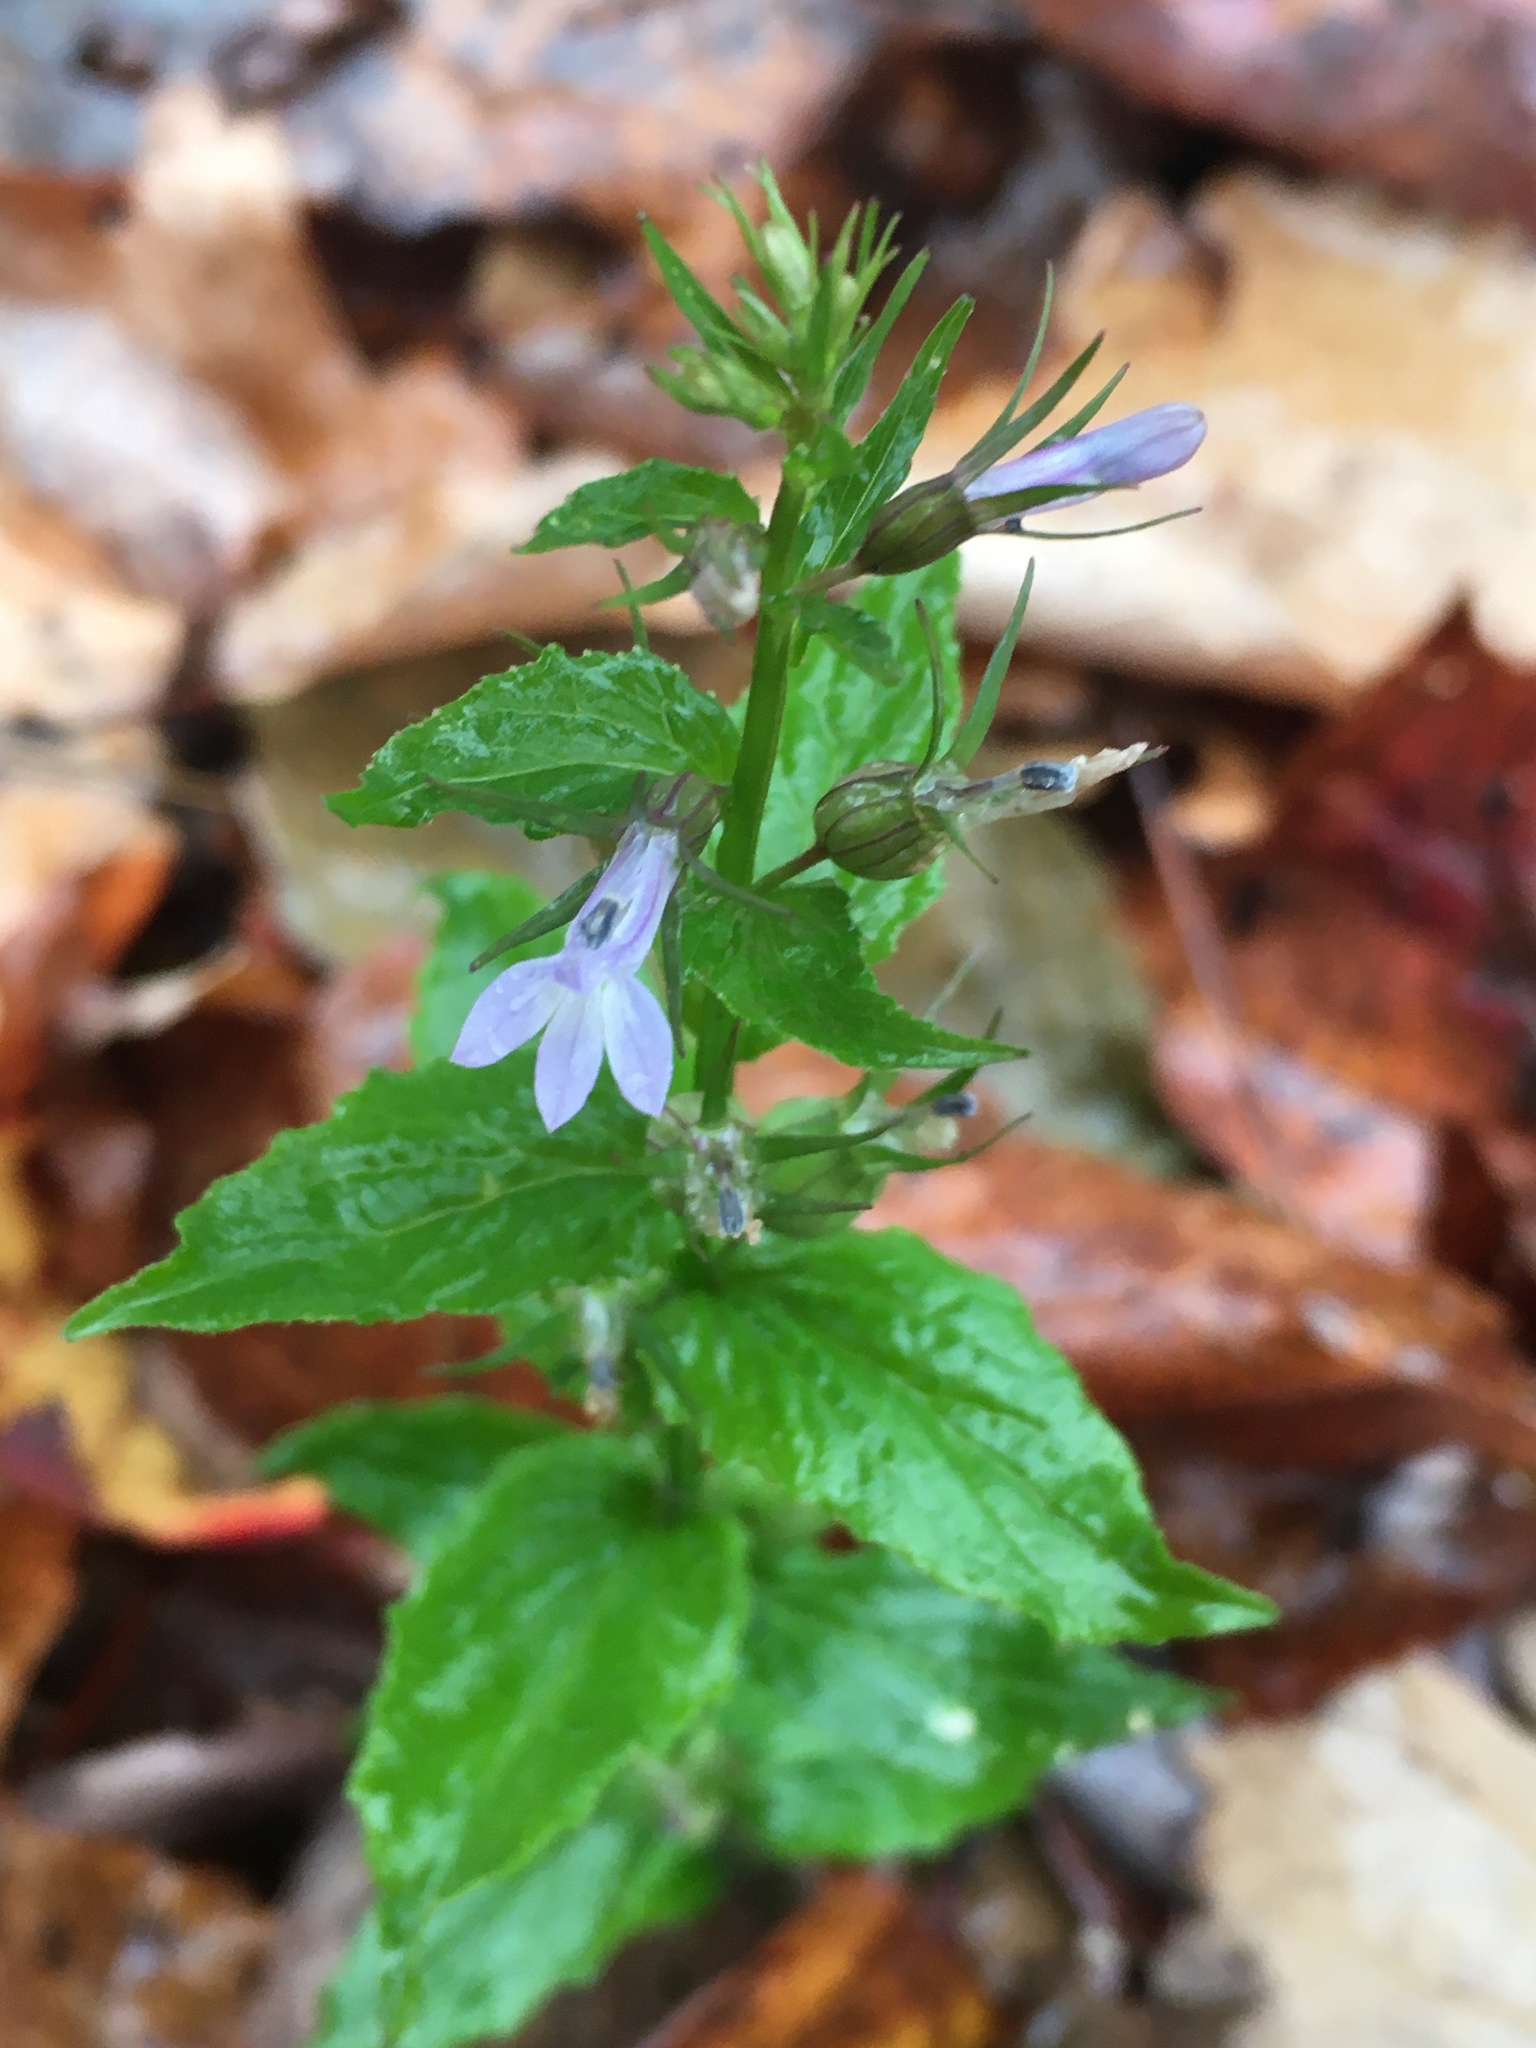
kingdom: Plantae
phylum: Tracheophyta
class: Magnoliopsida
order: Asterales
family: Campanulaceae
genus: Lobelia
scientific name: Lobelia inflata
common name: Indian tobacco
